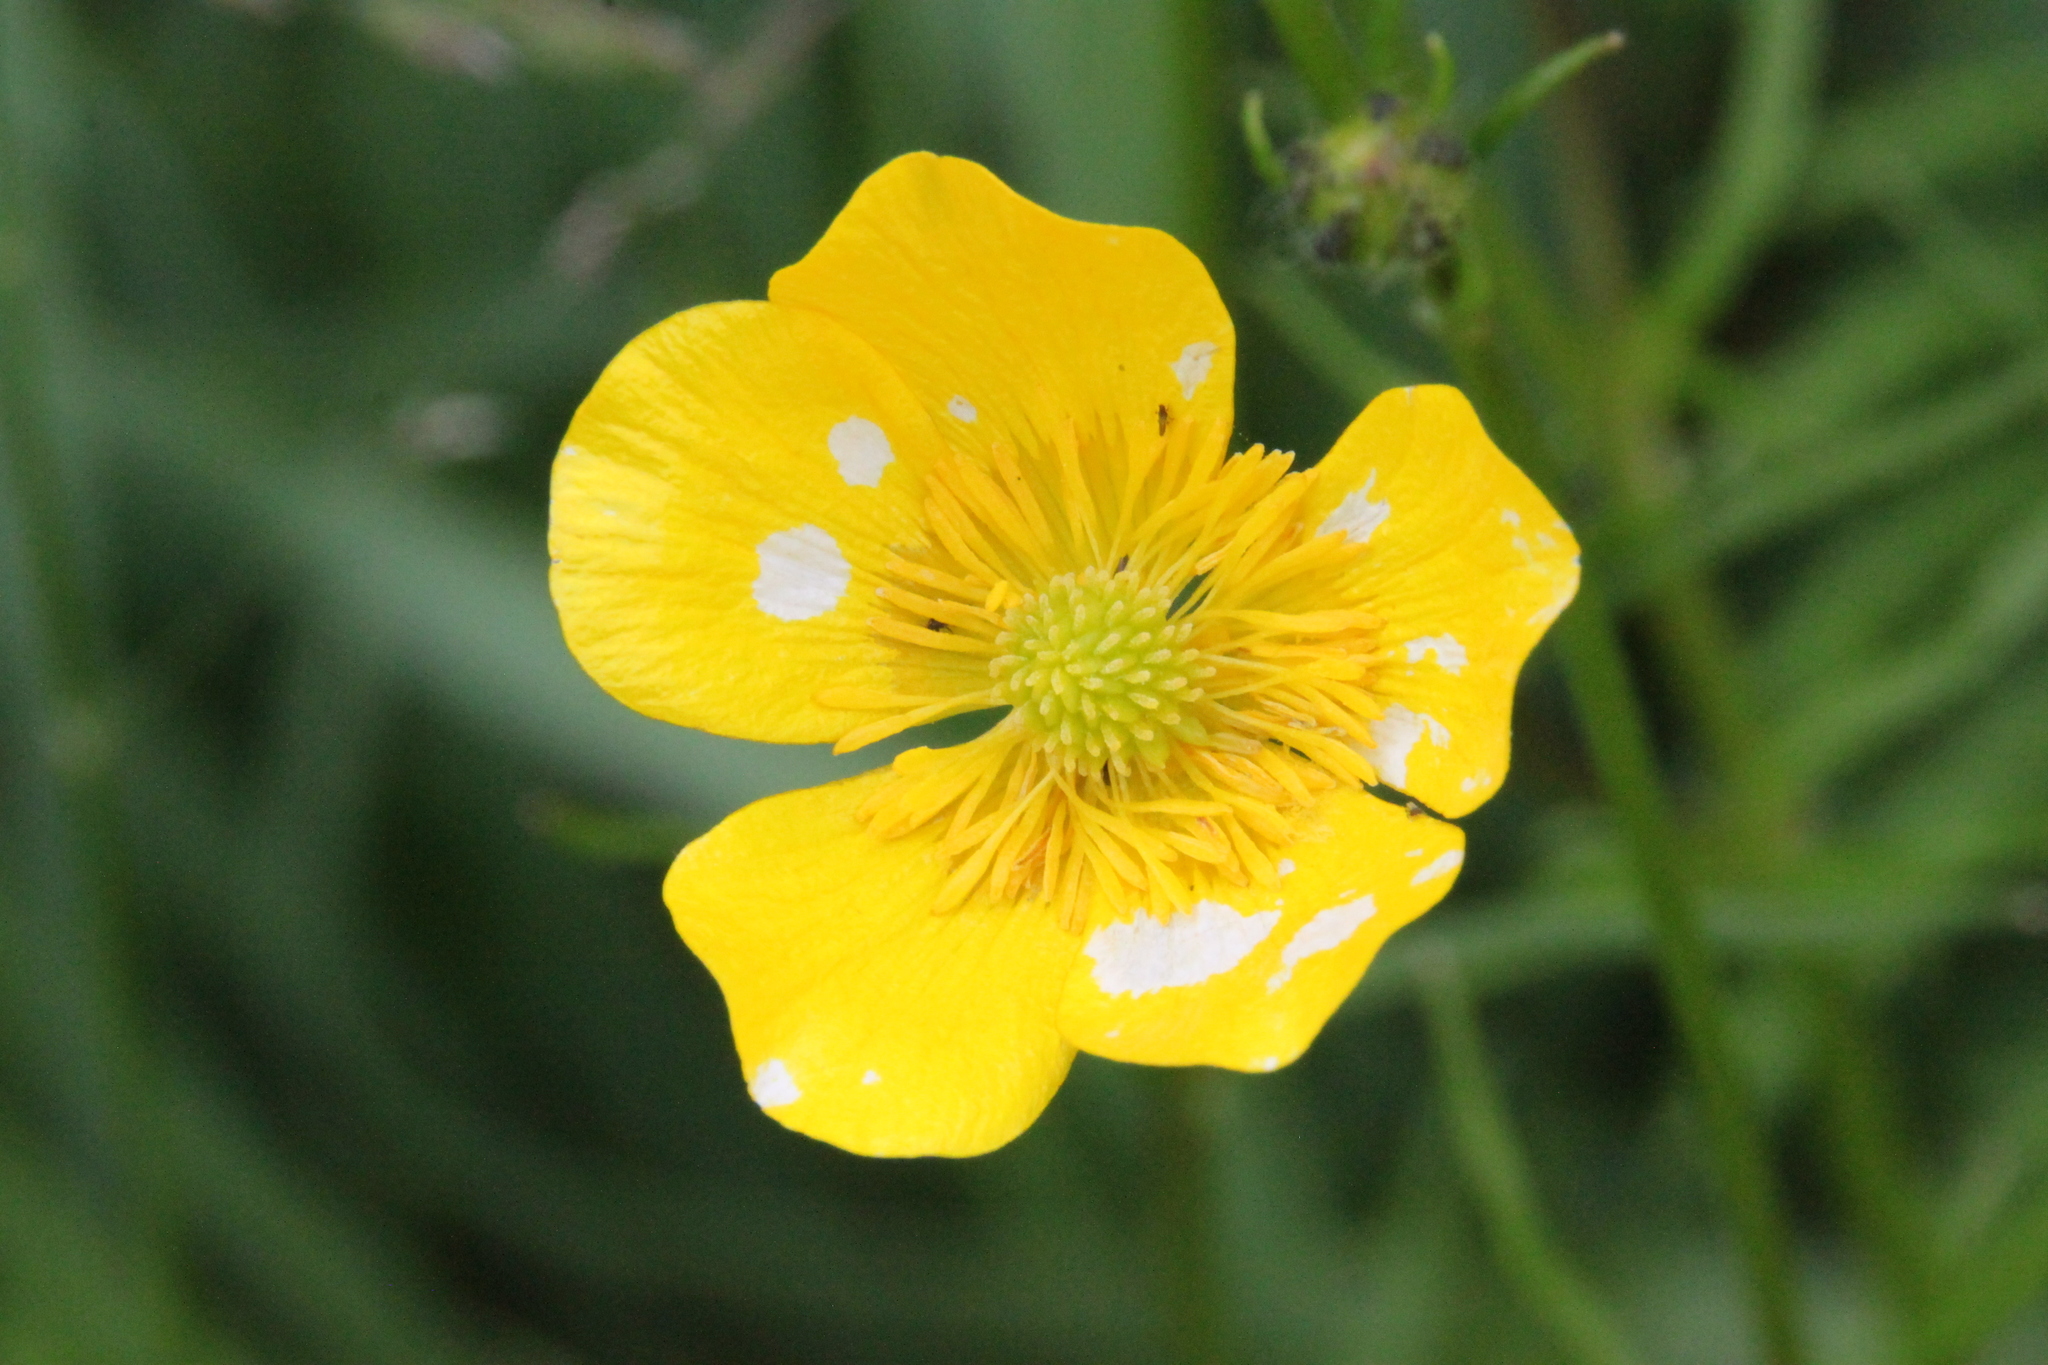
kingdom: Plantae
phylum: Tracheophyta
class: Magnoliopsida
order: Ranunculales
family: Ranunculaceae
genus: Ranunculus
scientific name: Ranunculus polyanthemos
